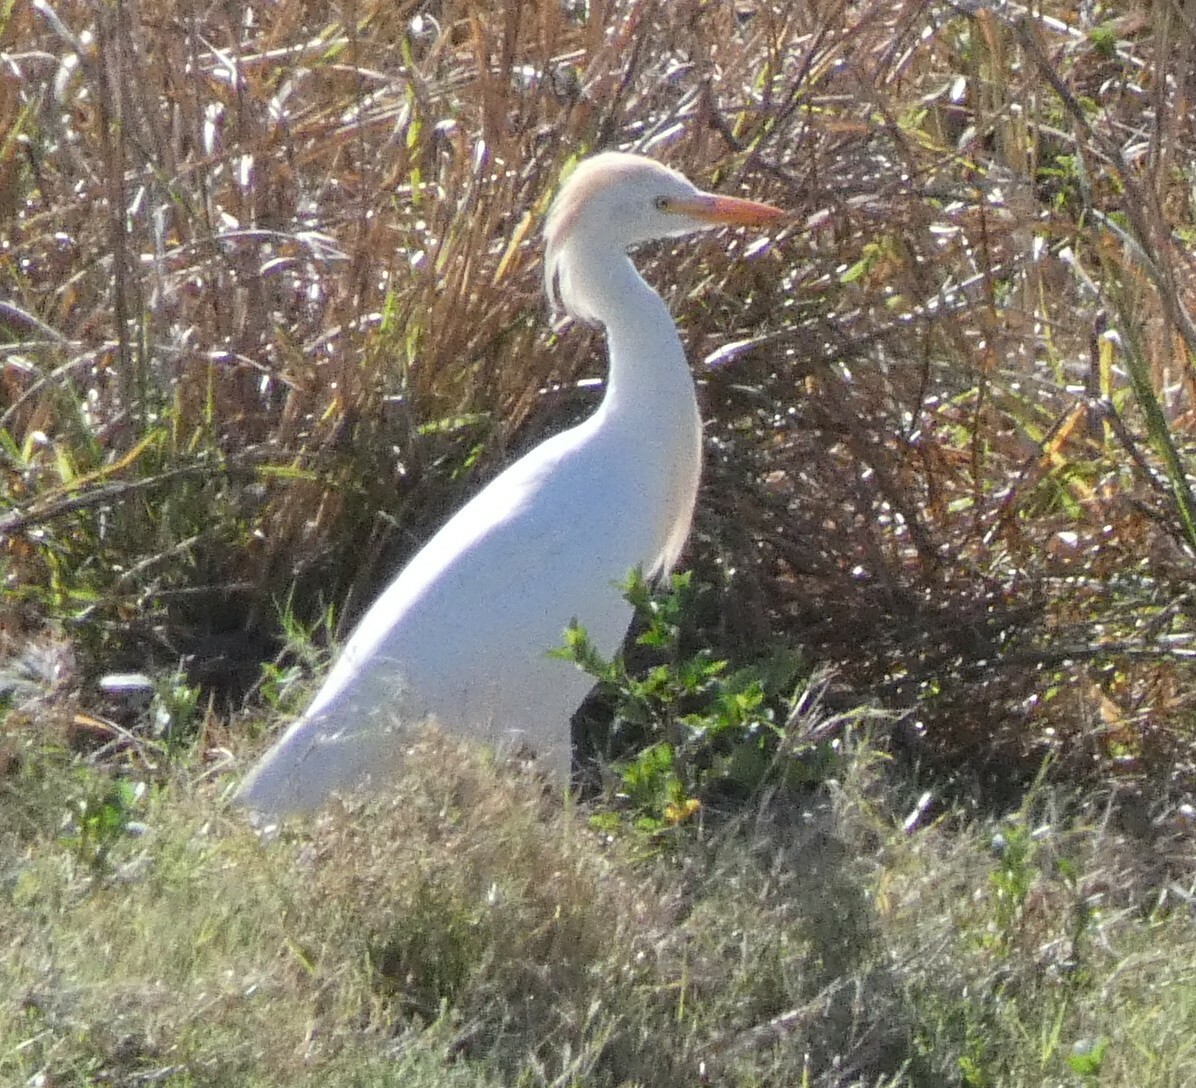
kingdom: Animalia
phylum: Chordata
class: Aves
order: Pelecaniformes
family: Ardeidae
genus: Bubulcus
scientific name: Bubulcus ibis
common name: Cattle egret
